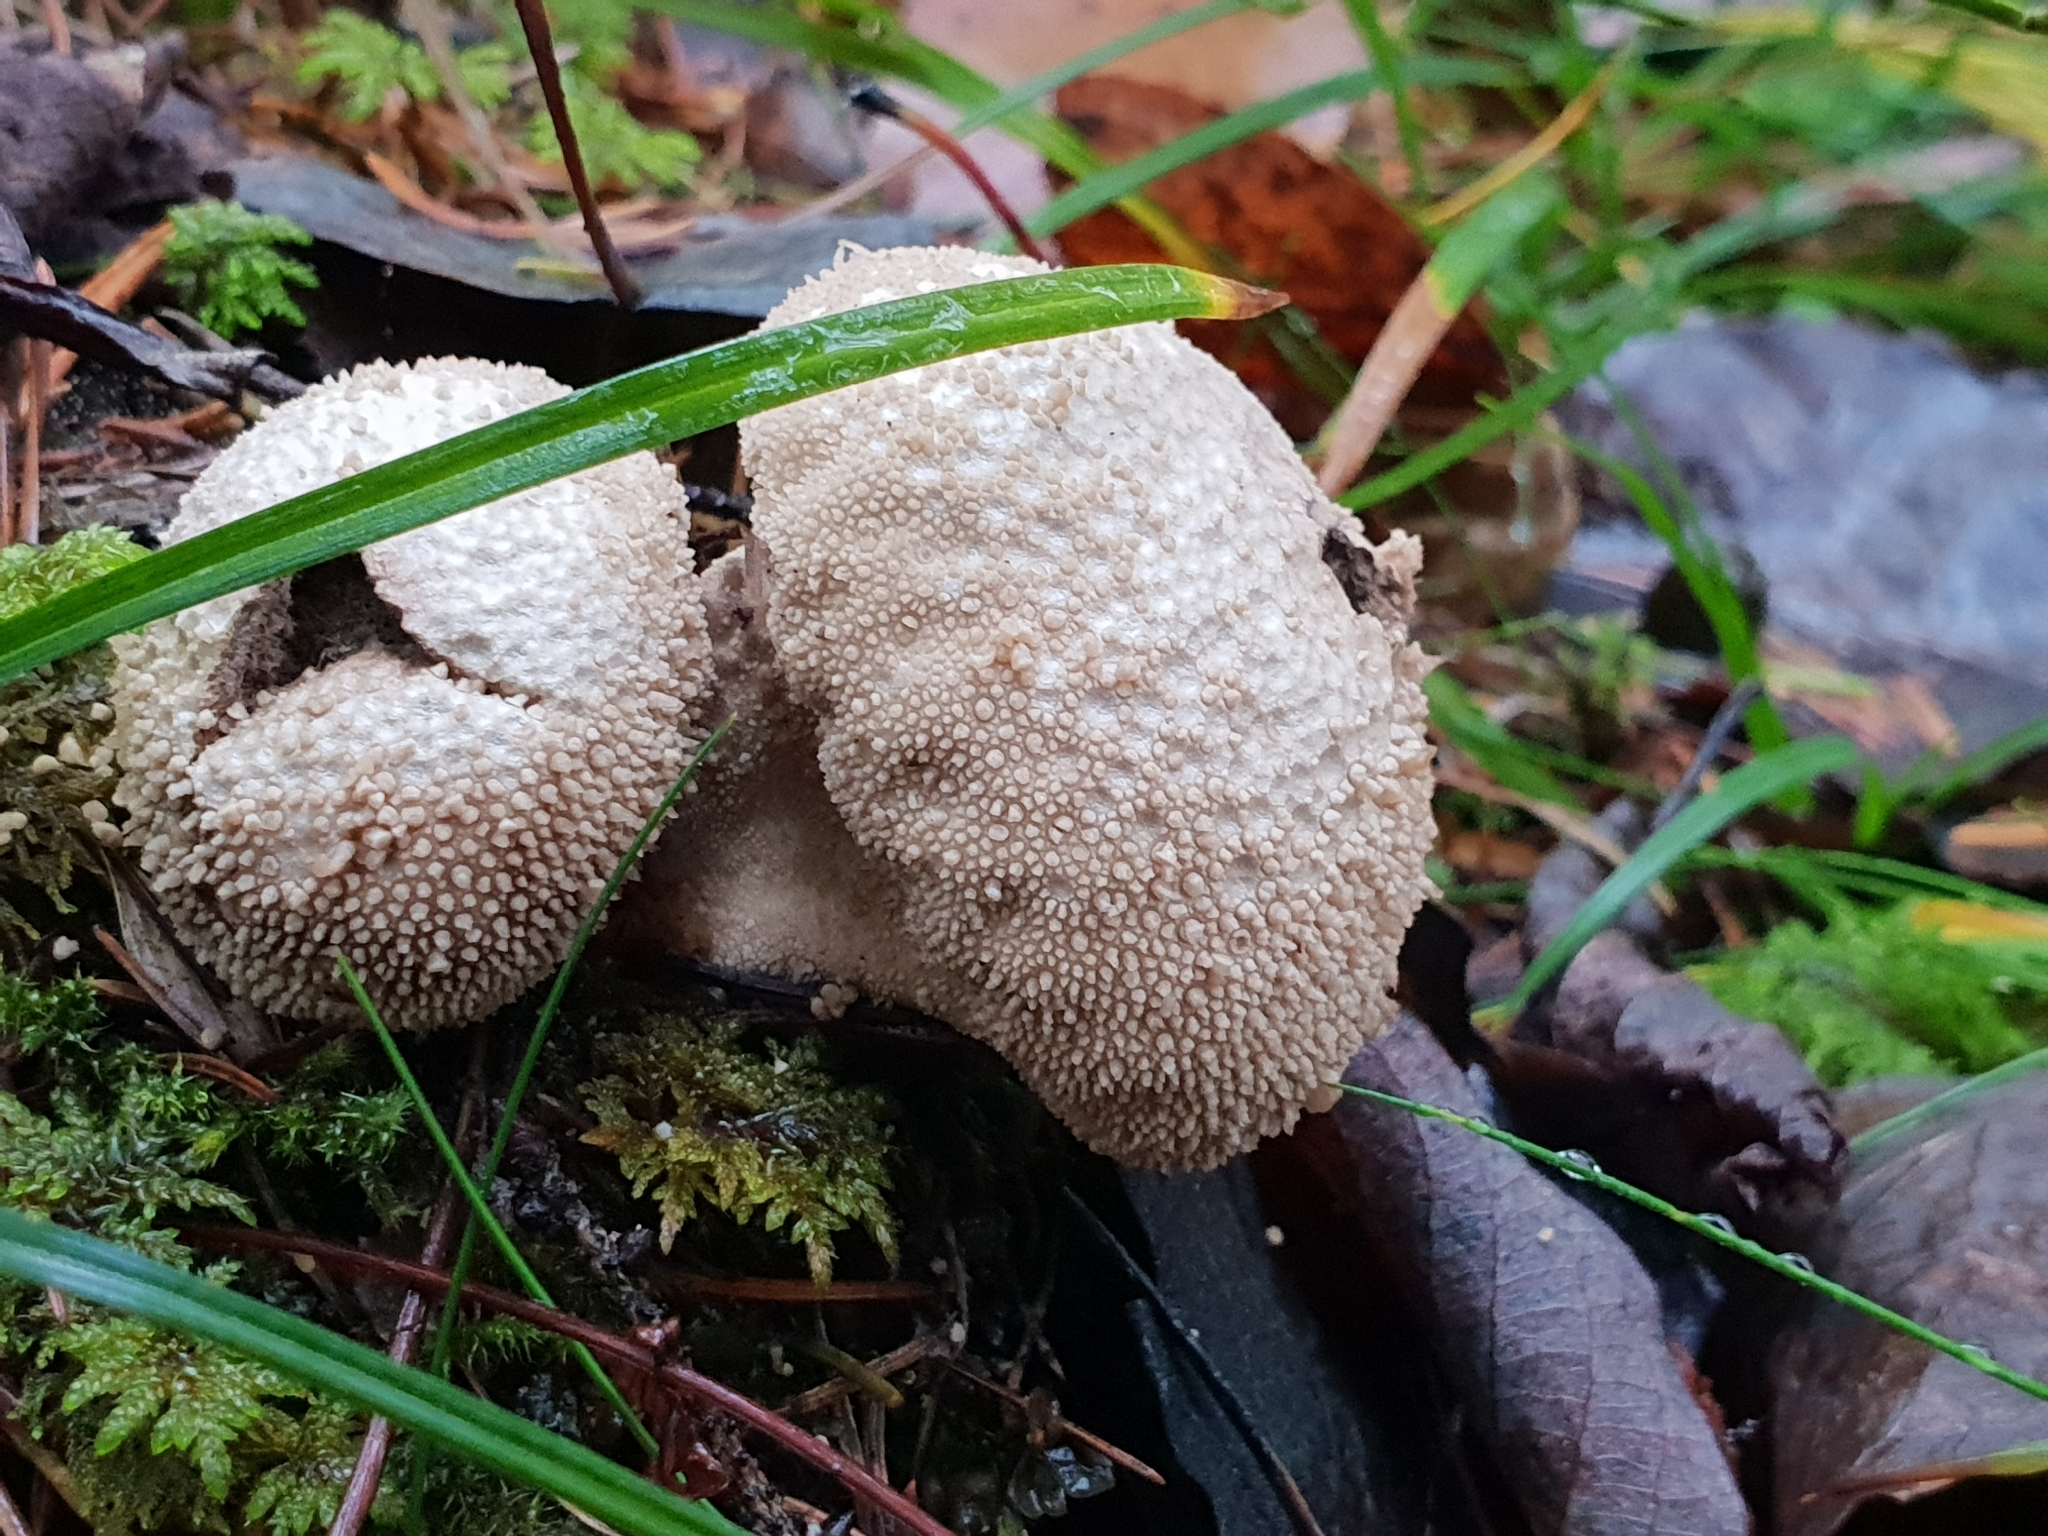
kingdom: Fungi
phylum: Basidiomycota
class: Agaricomycetes
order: Agaricales
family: Lycoperdaceae
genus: Lycoperdon
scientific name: Lycoperdon perlatum
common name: Common puffball
